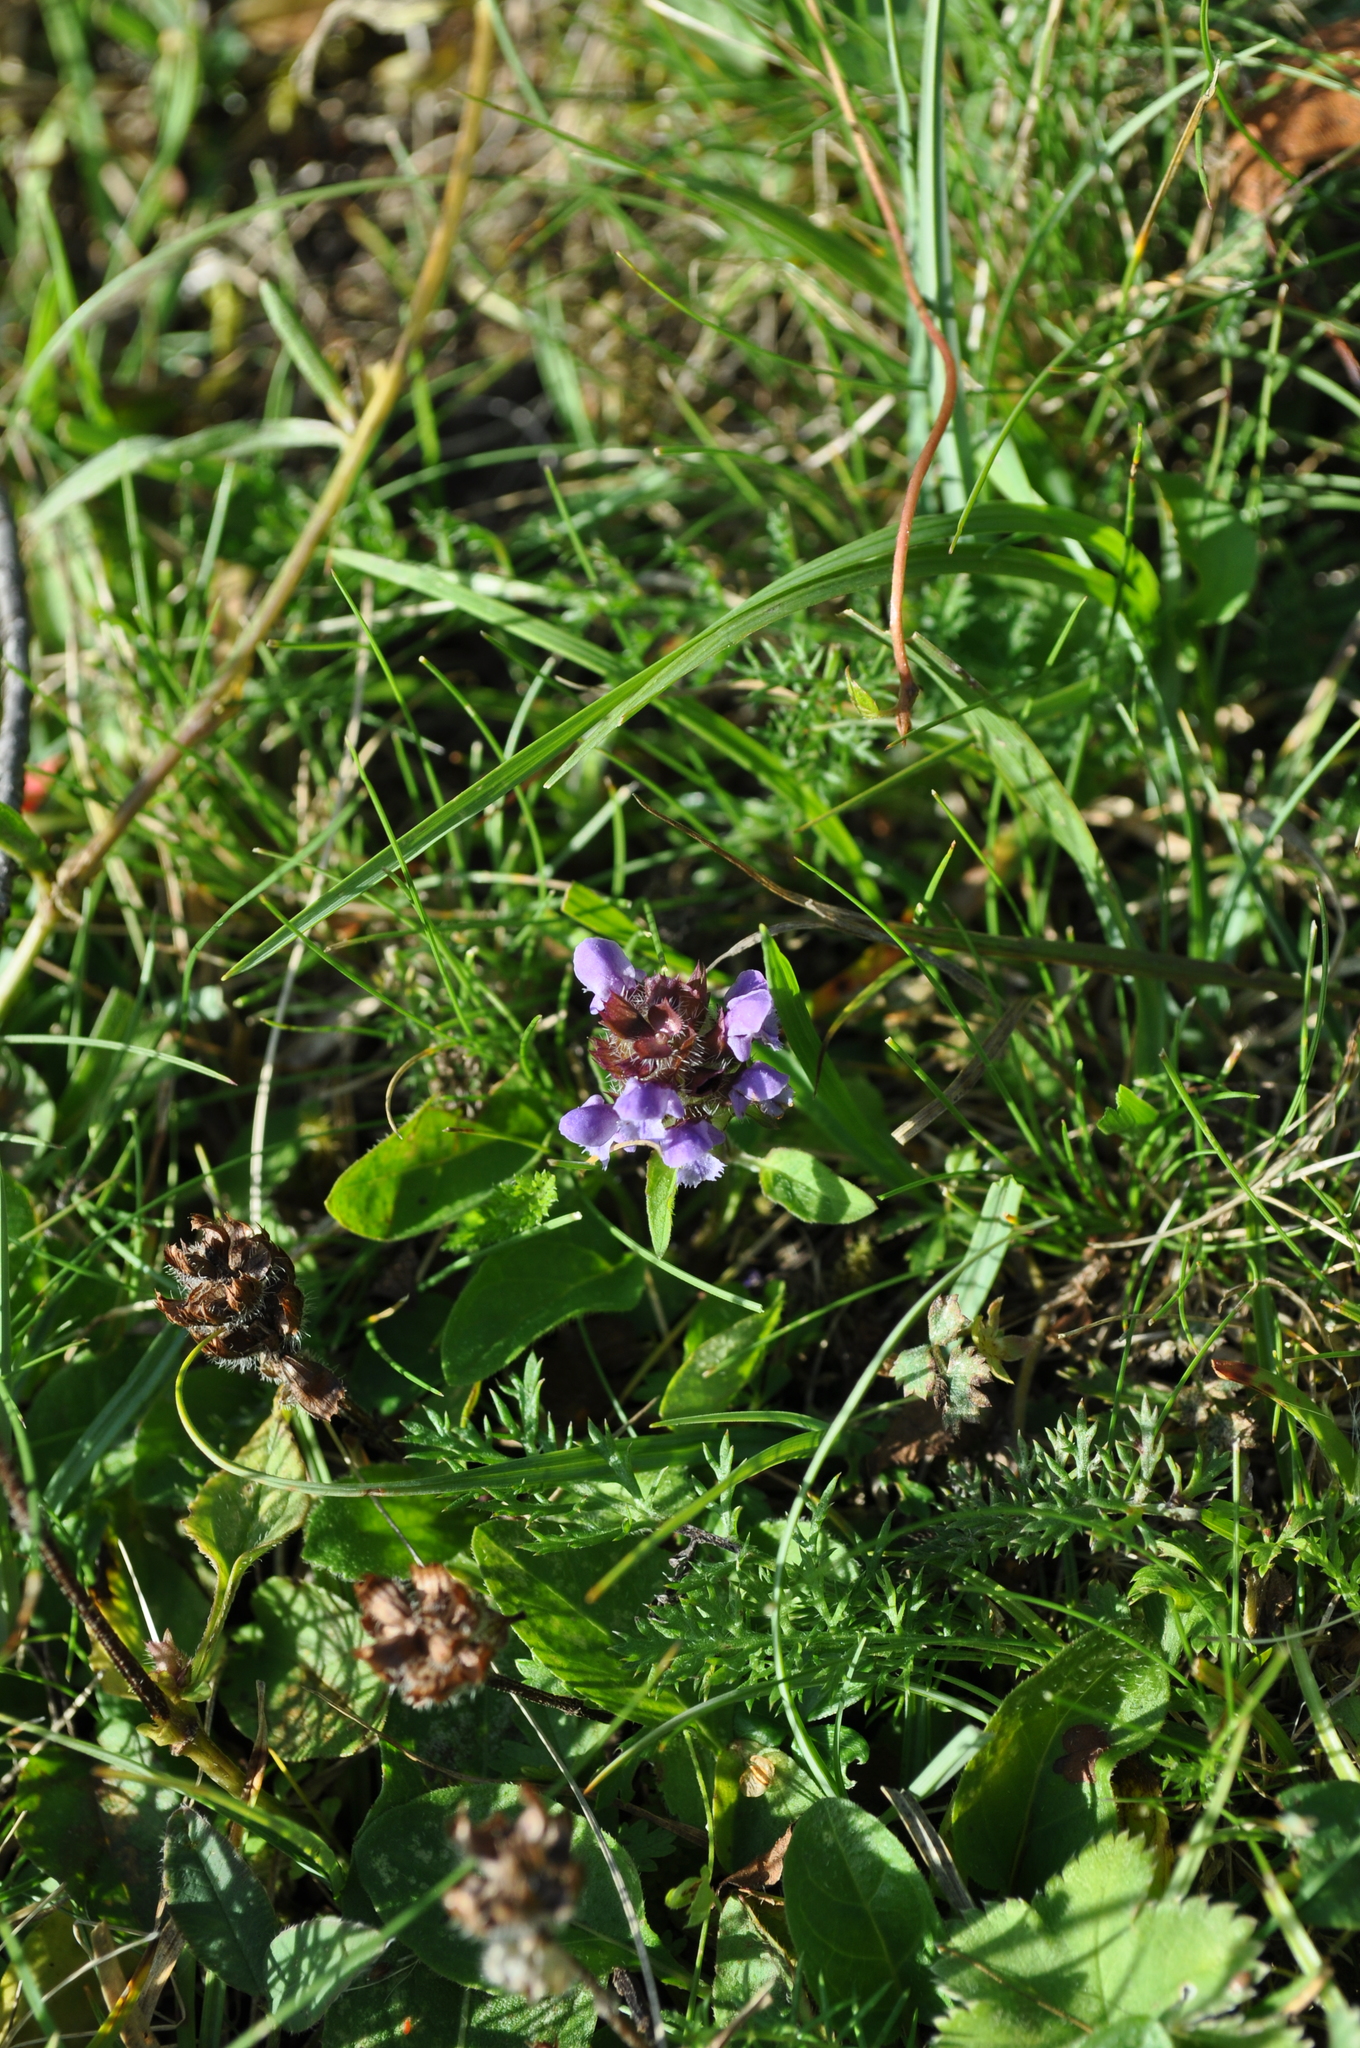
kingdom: Plantae
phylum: Tracheophyta
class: Magnoliopsida
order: Lamiales
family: Lamiaceae
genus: Prunella
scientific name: Prunella vulgaris
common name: Heal-all
